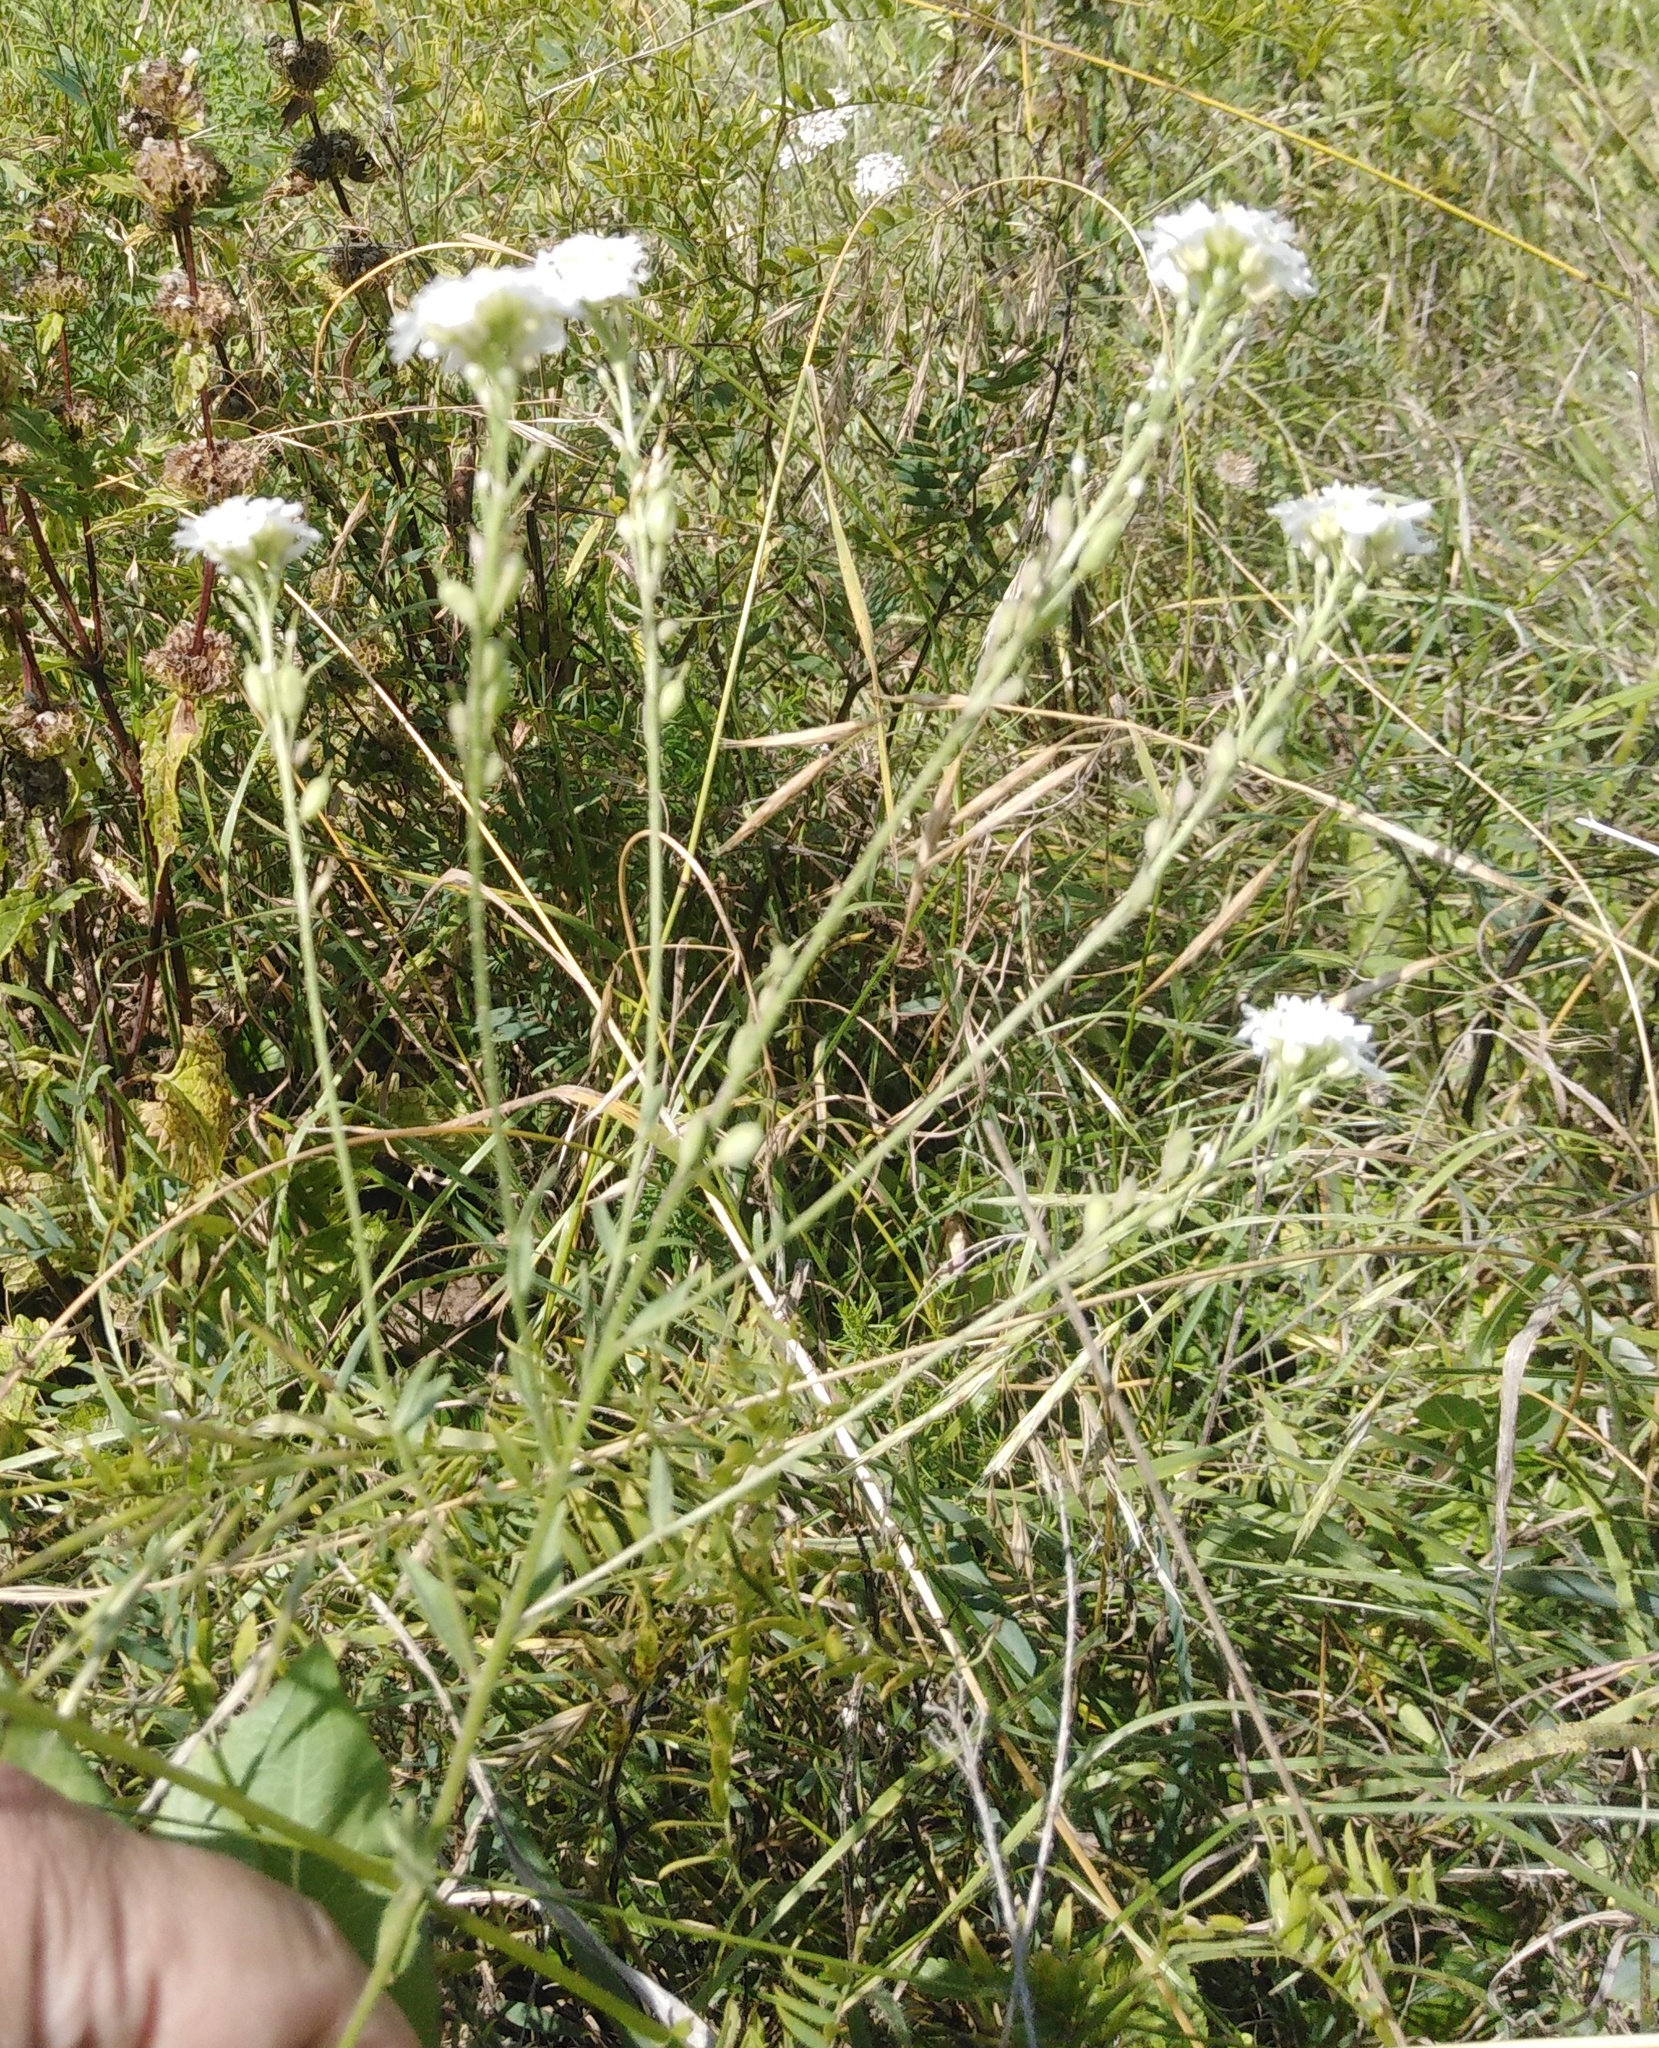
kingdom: Plantae
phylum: Tracheophyta
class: Magnoliopsida
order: Brassicales
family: Brassicaceae
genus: Berteroa
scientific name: Berteroa incana
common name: Hoary alison
